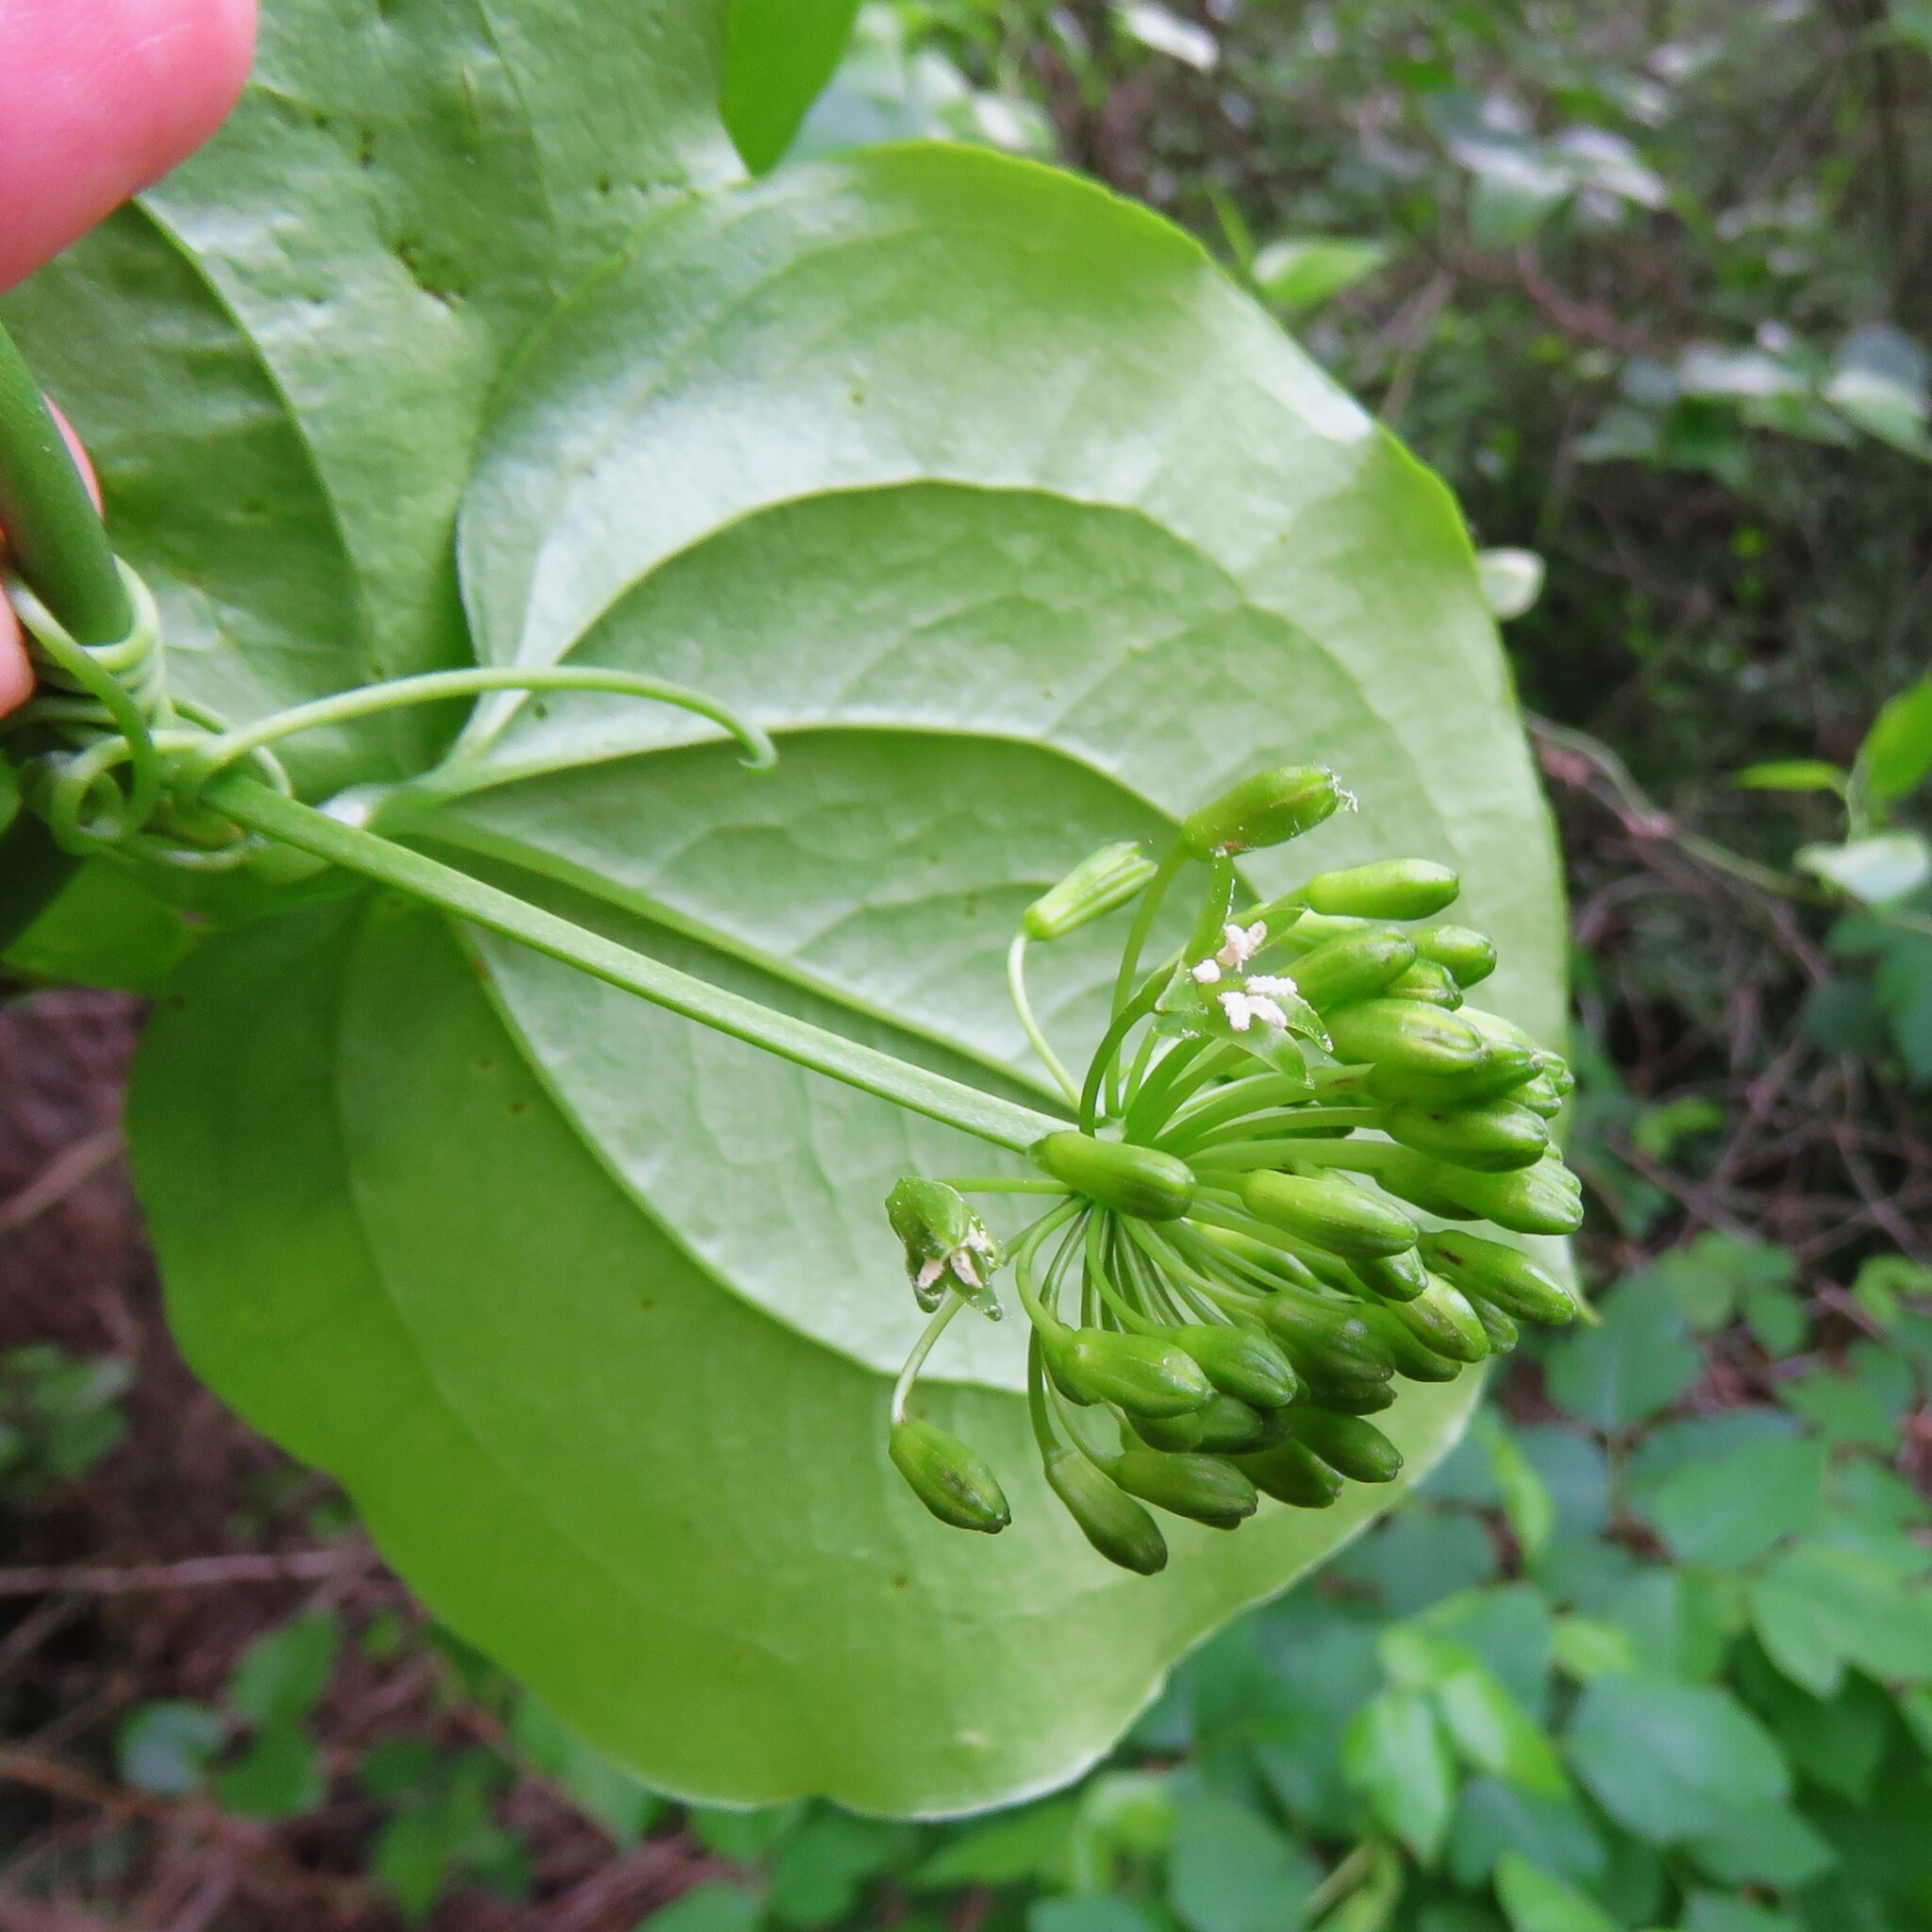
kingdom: Plantae
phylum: Tracheophyta
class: Liliopsida
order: Liliales
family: Smilacaceae
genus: Smilax
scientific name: Smilax rotundifolia
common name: Bullbriar
